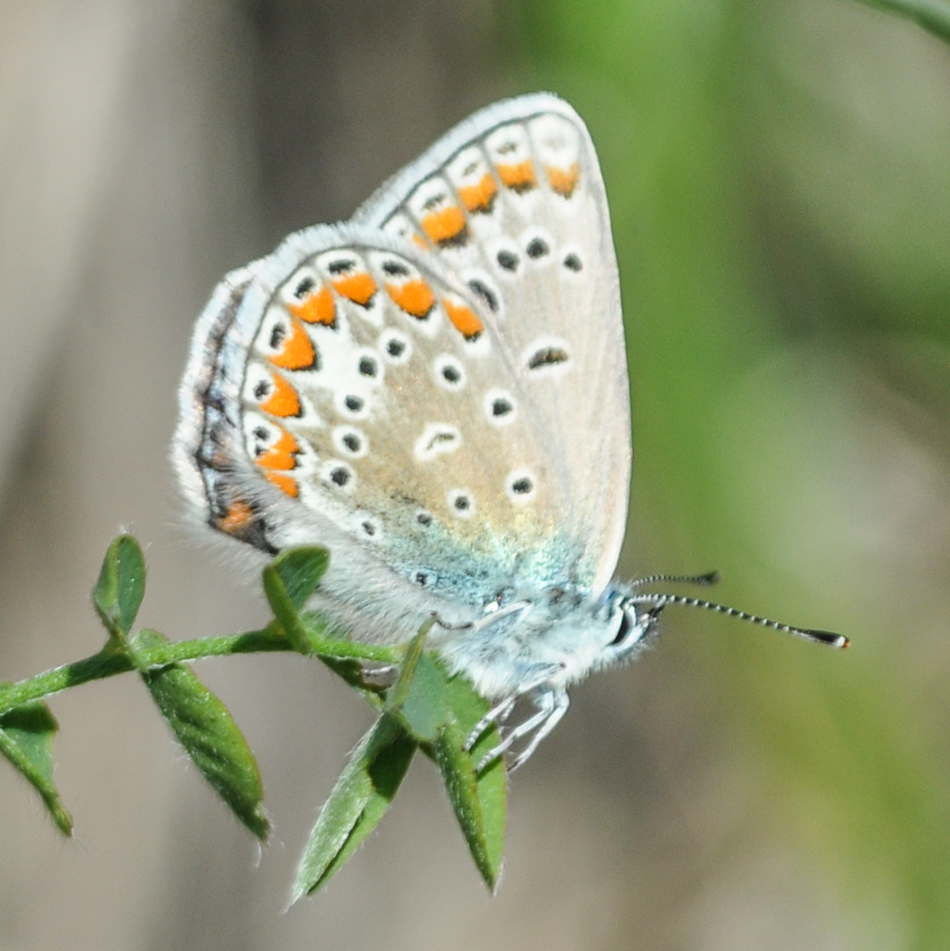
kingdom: Animalia
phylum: Arthropoda
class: Insecta
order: Lepidoptera
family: Lycaenidae
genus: Polyommatus
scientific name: Polyommatus thersites
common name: Chapman's blue
